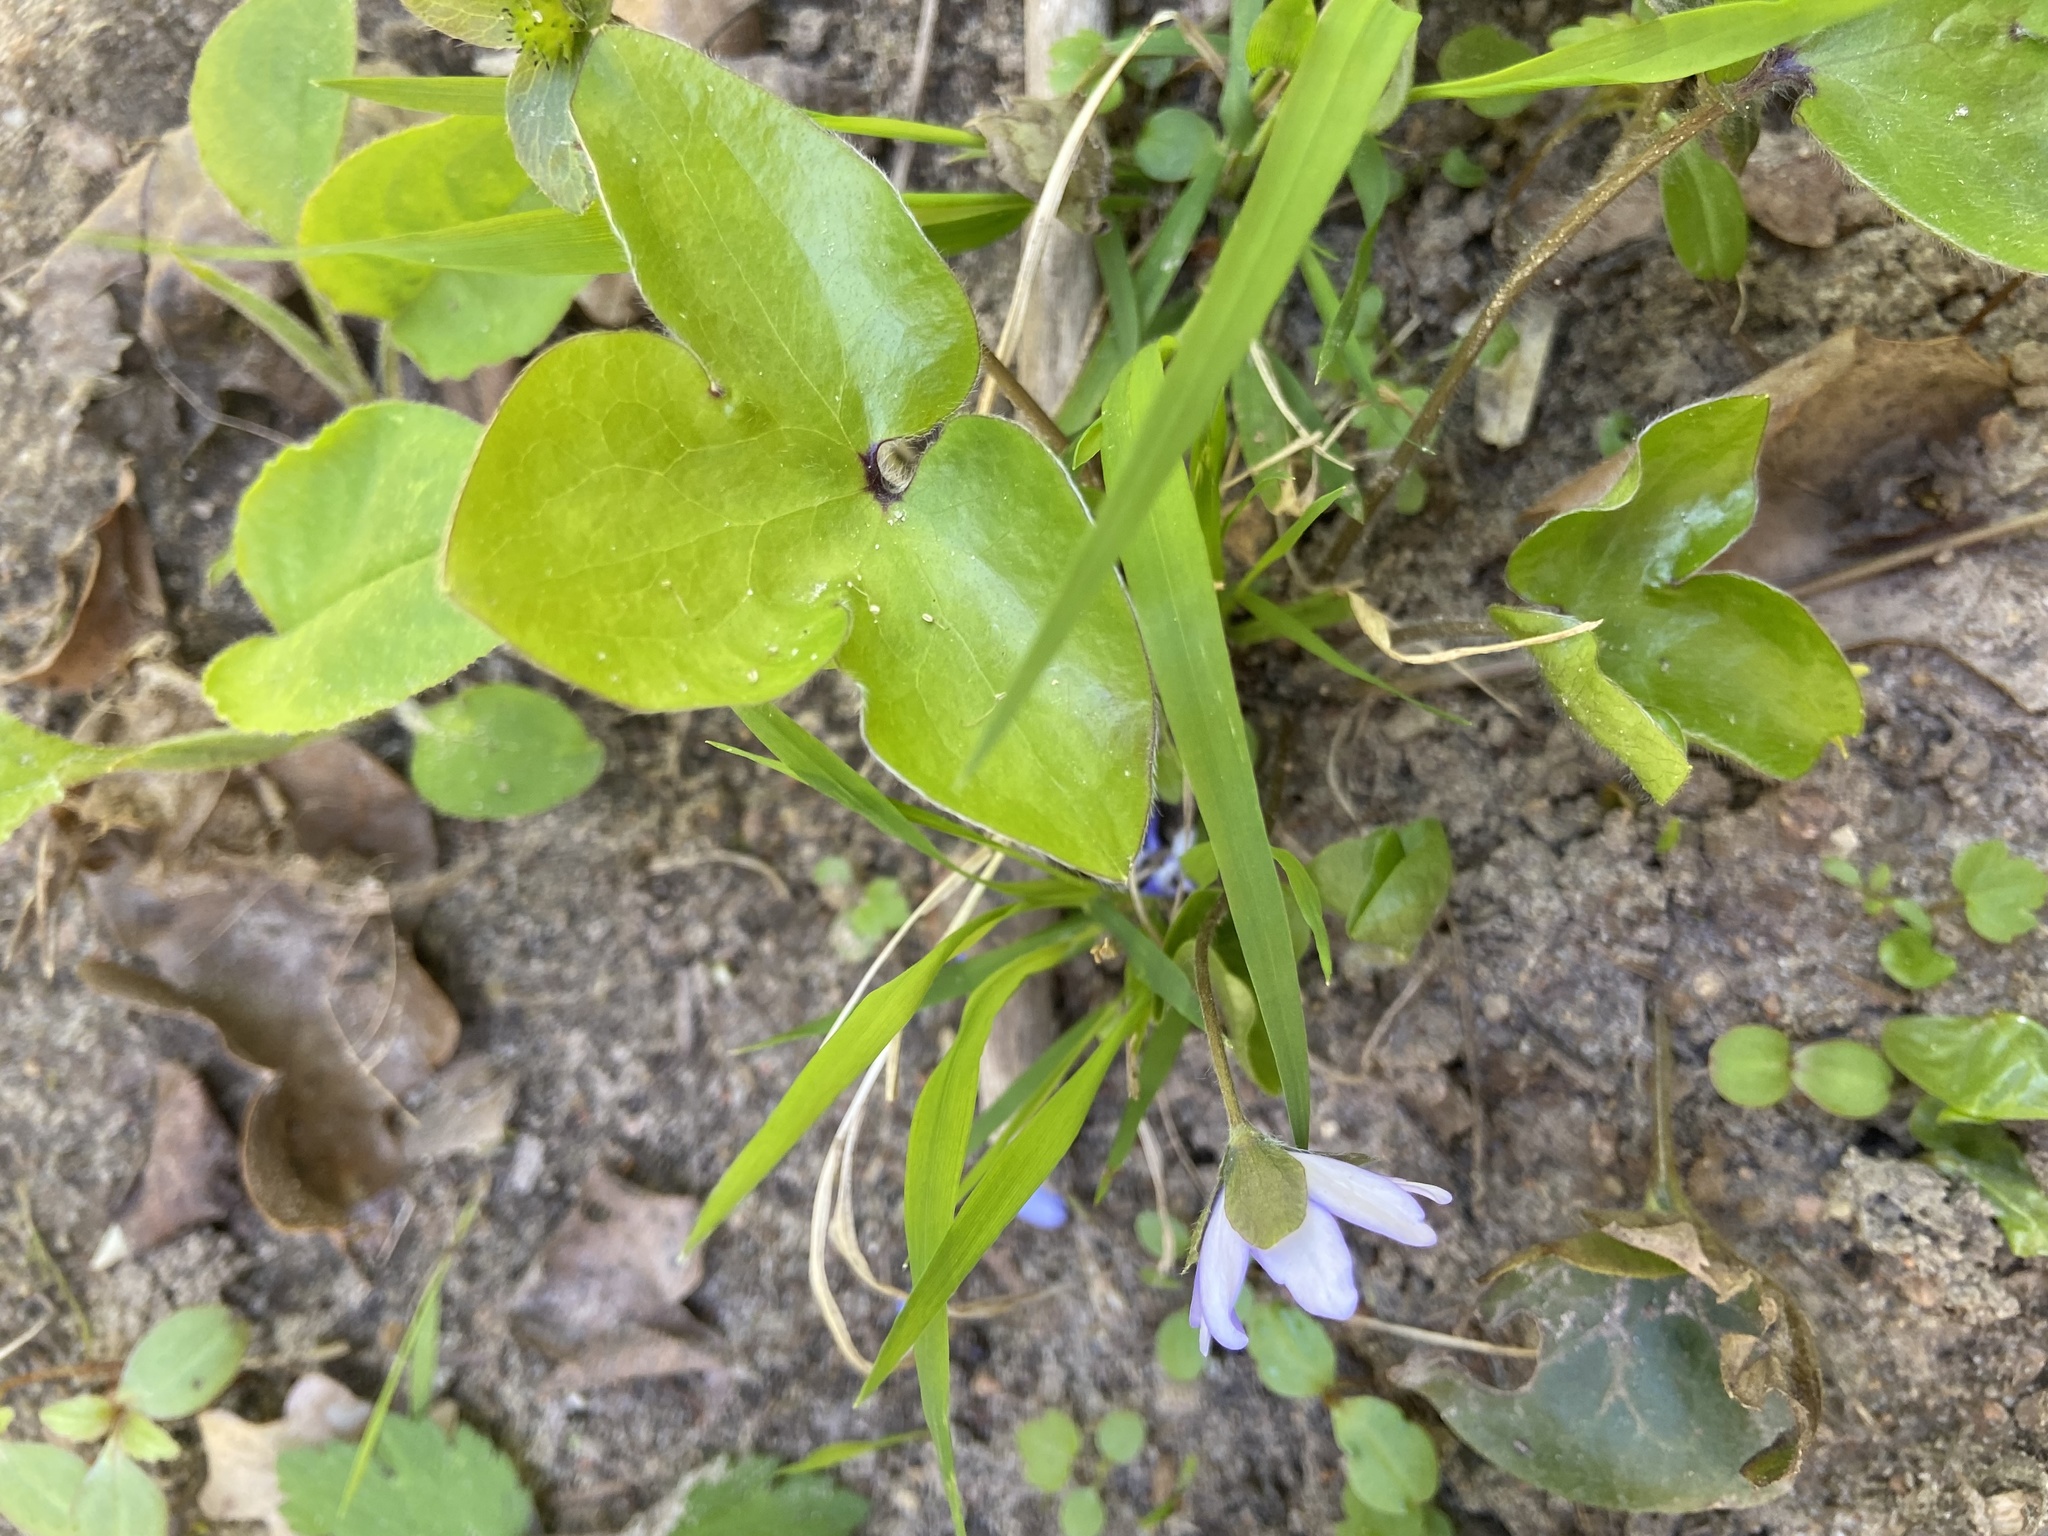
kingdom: Plantae
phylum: Tracheophyta
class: Magnoliopsida
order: Ranunculales
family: Ranunculaceae
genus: Hepatica
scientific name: Hepatica nobilis
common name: Liverleaf
